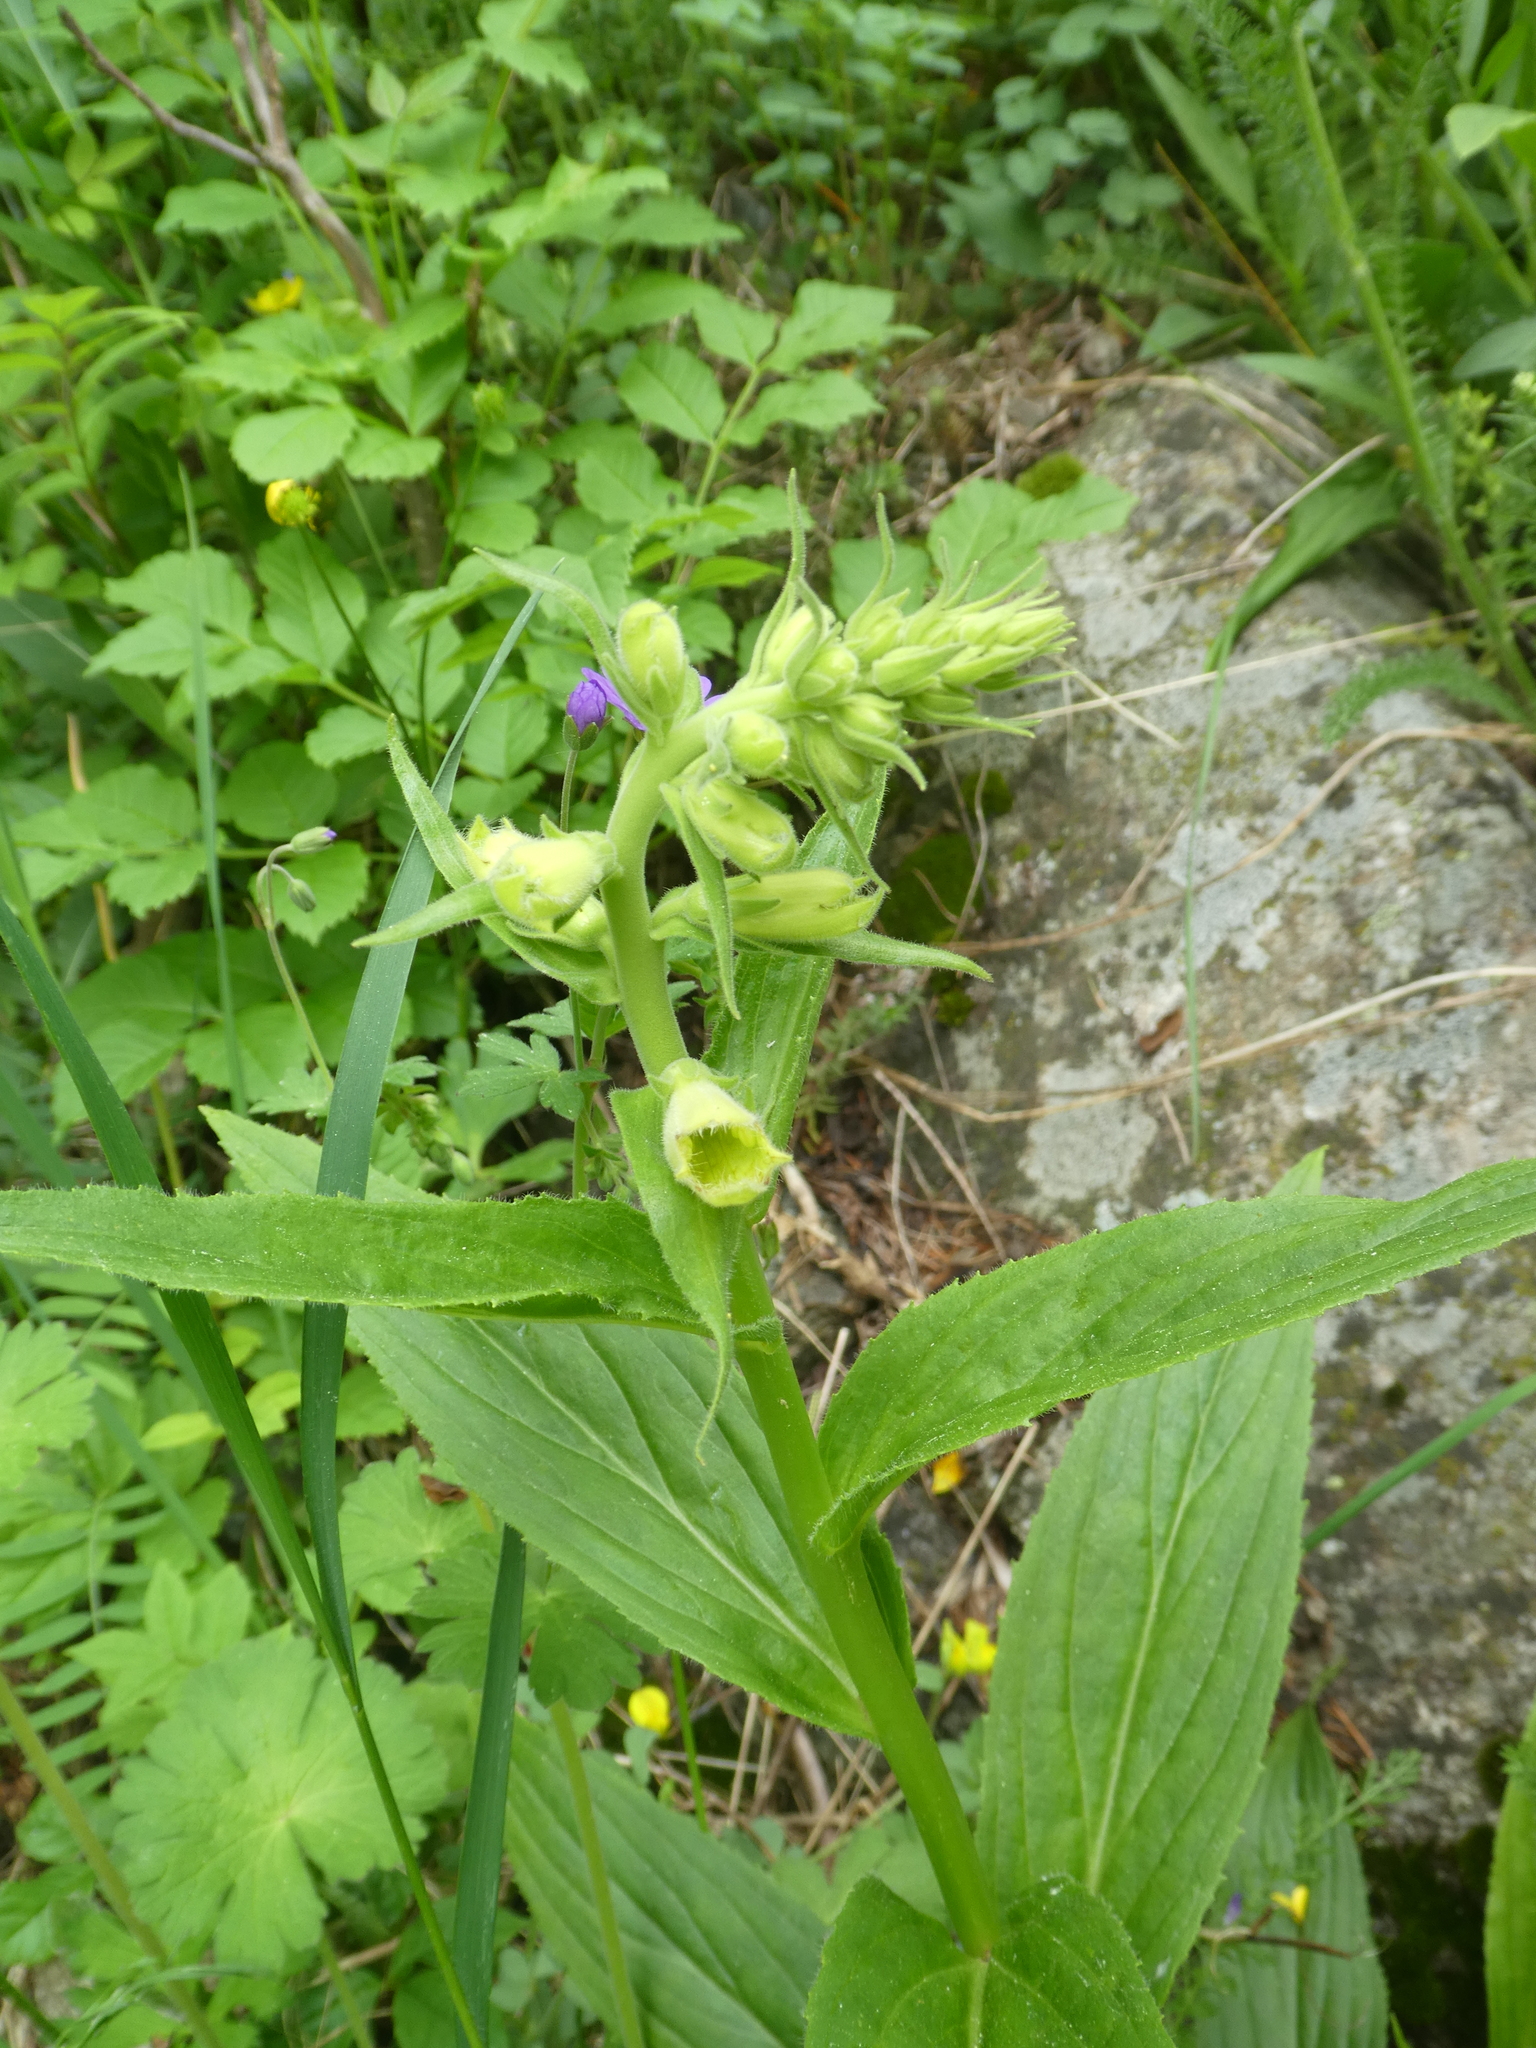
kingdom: Plantae
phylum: Tracheophyta
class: Magnoliopsida
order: Lamiales
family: Plantaginaceae
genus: Digitalis
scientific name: Digitalis grandiflora
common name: Yellow foxglove
